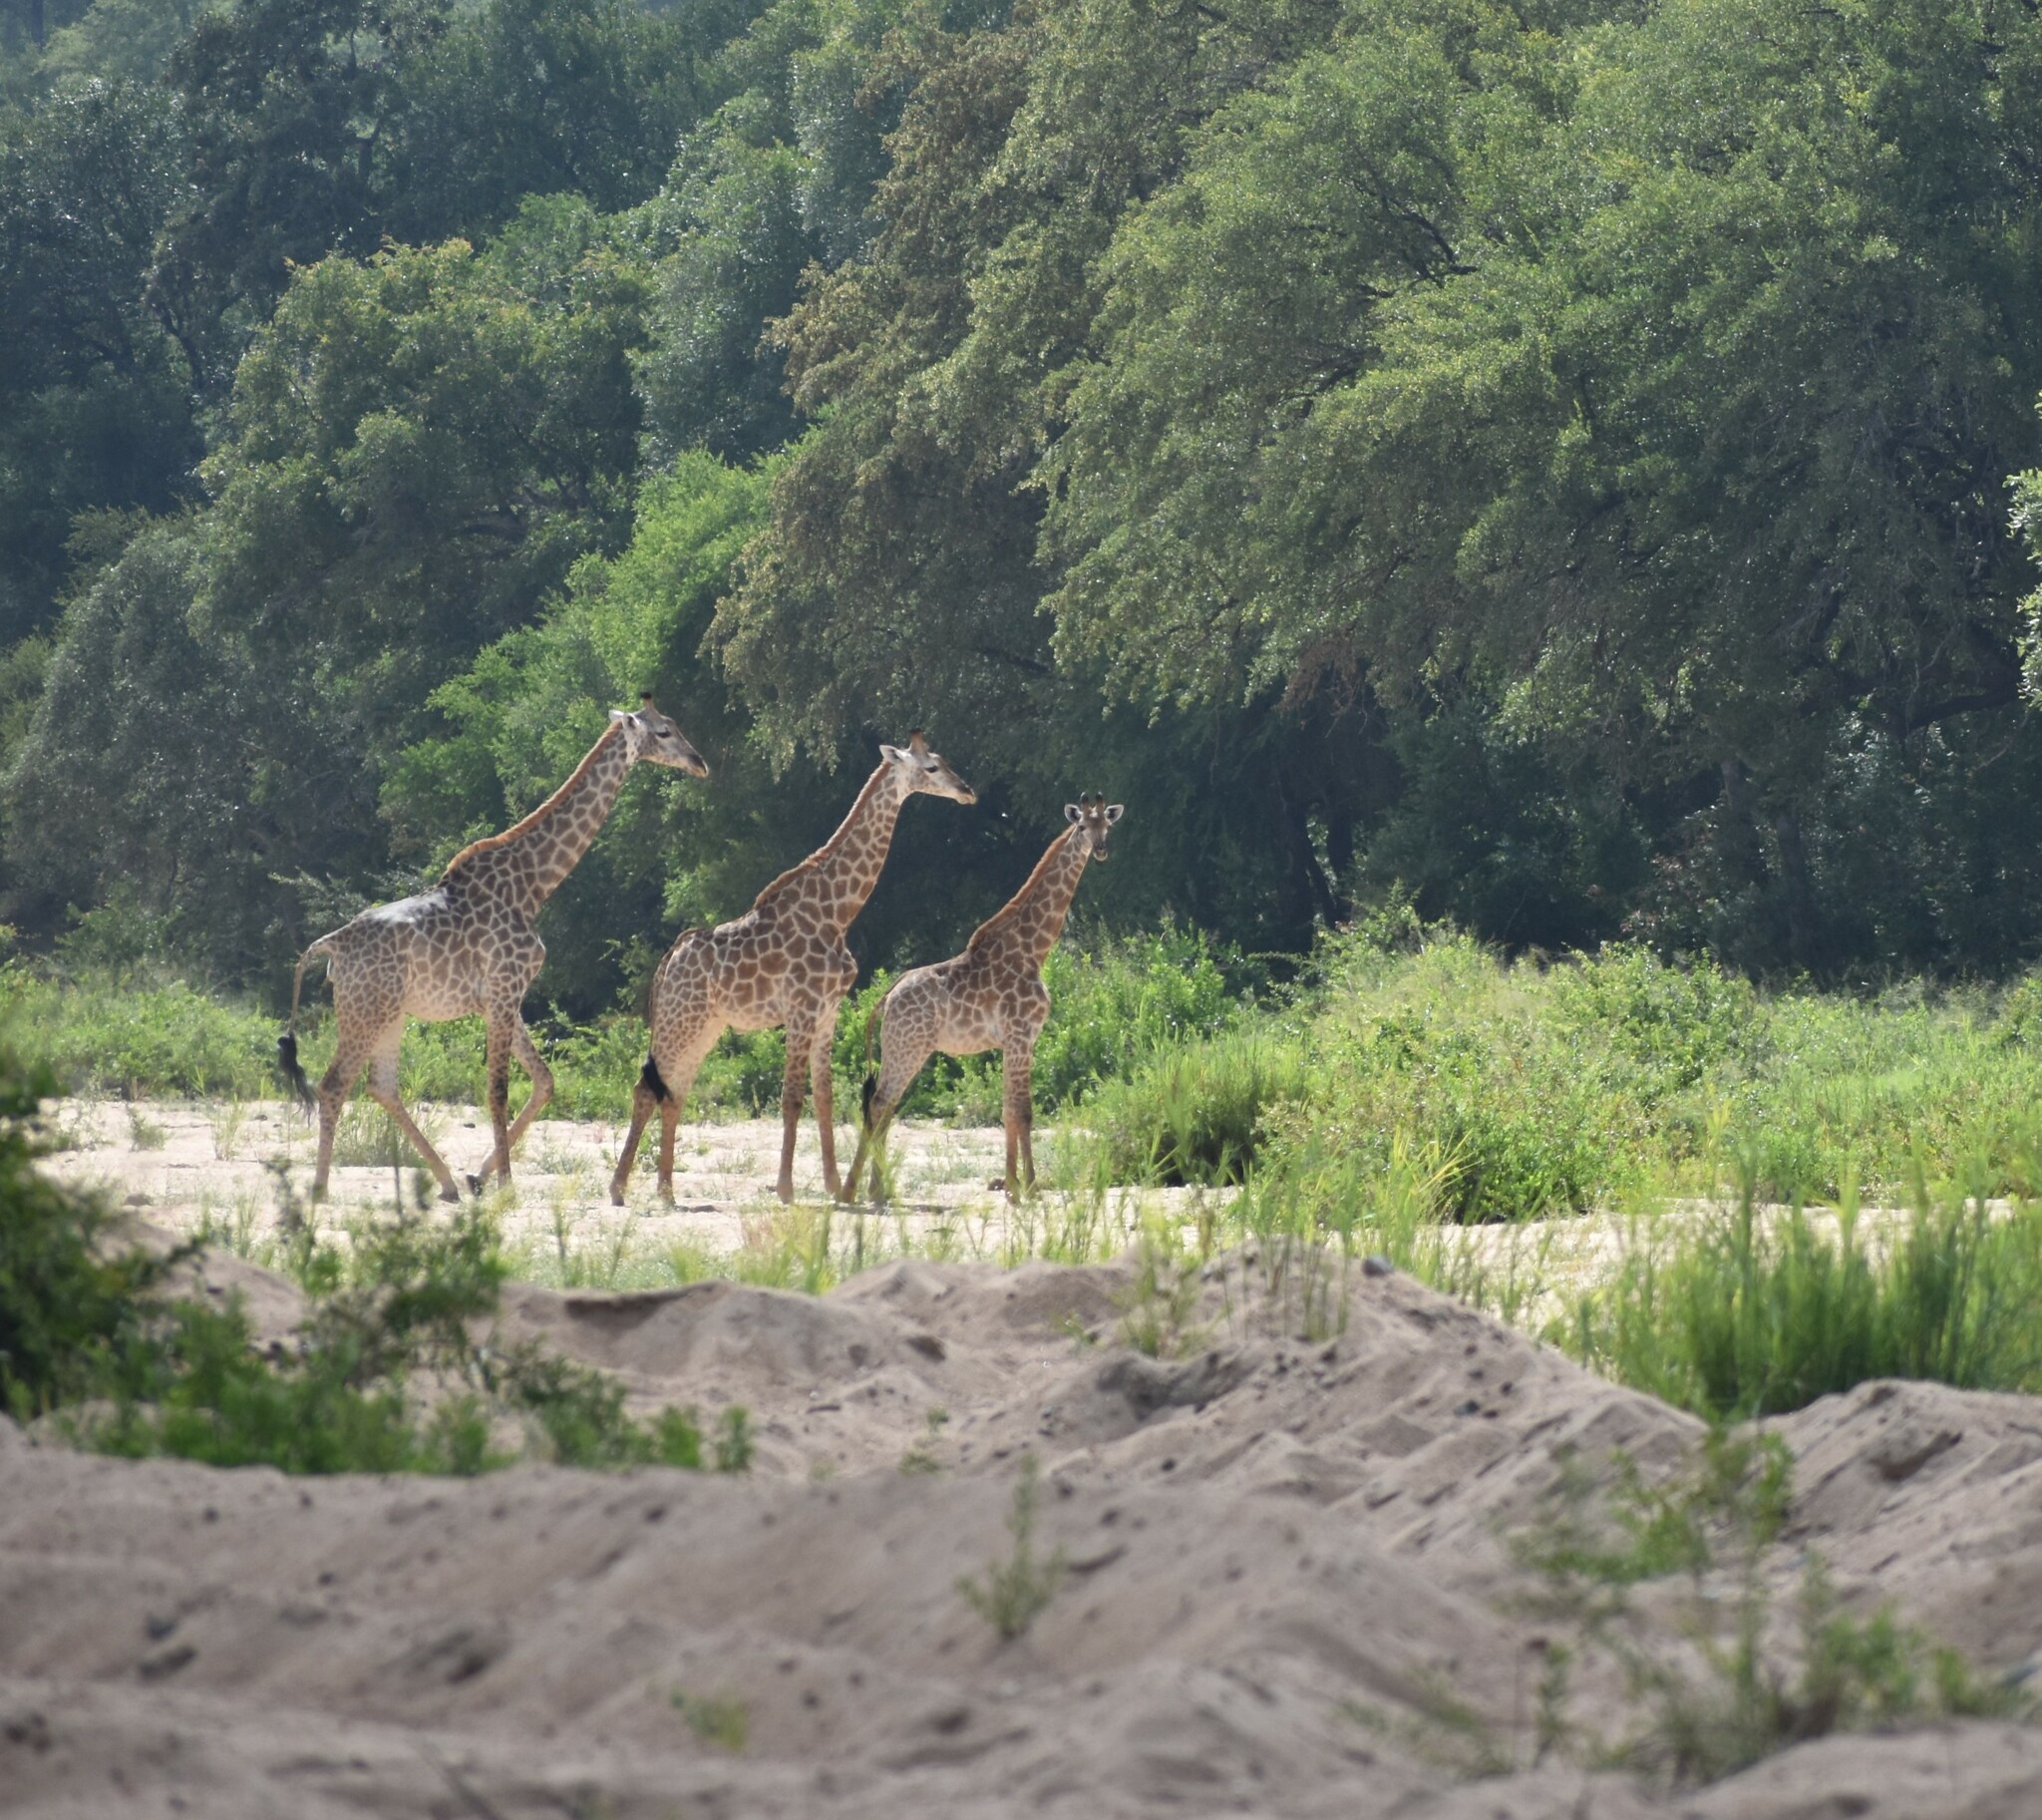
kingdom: Animalia
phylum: Chordata
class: Mammalia
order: Artiodactyla
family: Giraffidae
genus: Giraffa
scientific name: Giraffa giraffa
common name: Southern giraffe
